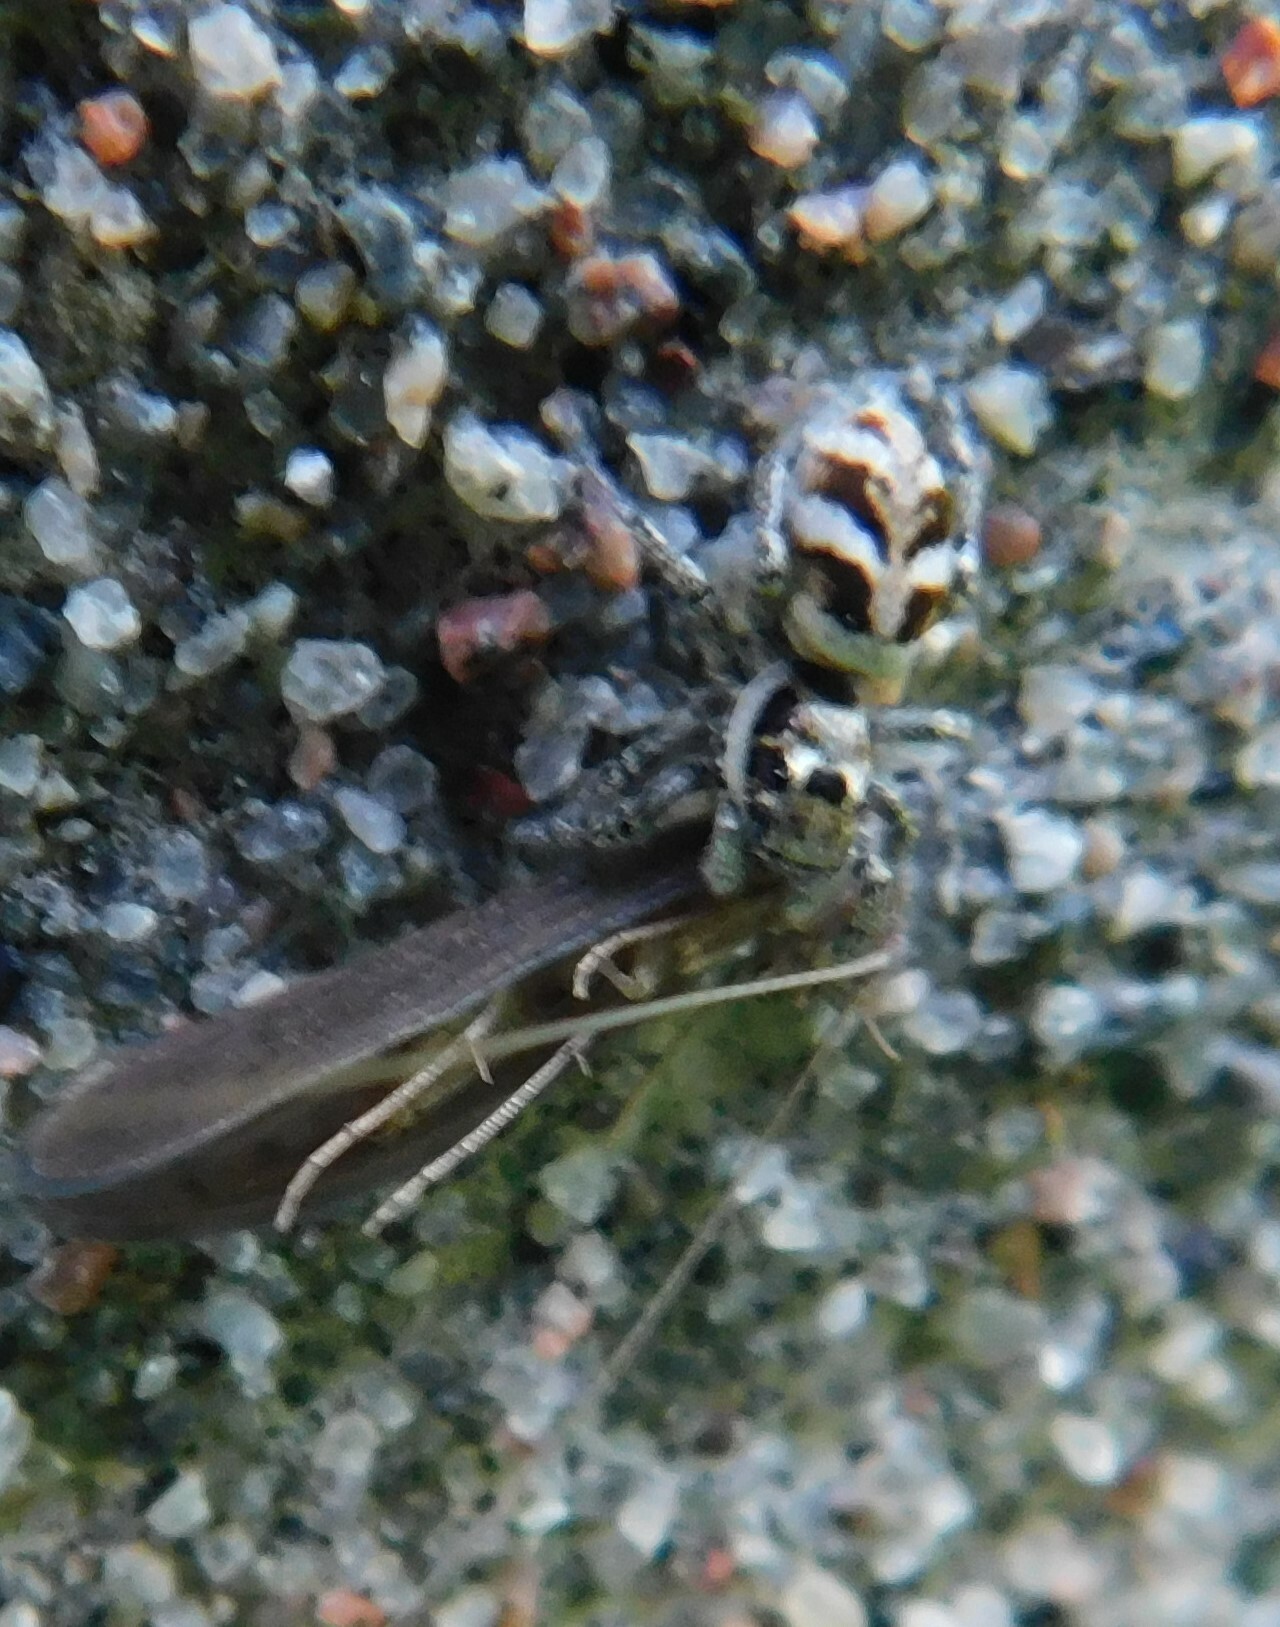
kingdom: Animalia
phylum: Arthropoda
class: Arachnida
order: Araneae
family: Salticidae
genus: Salticus
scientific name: Salticus scenicus
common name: Zebra jumper
